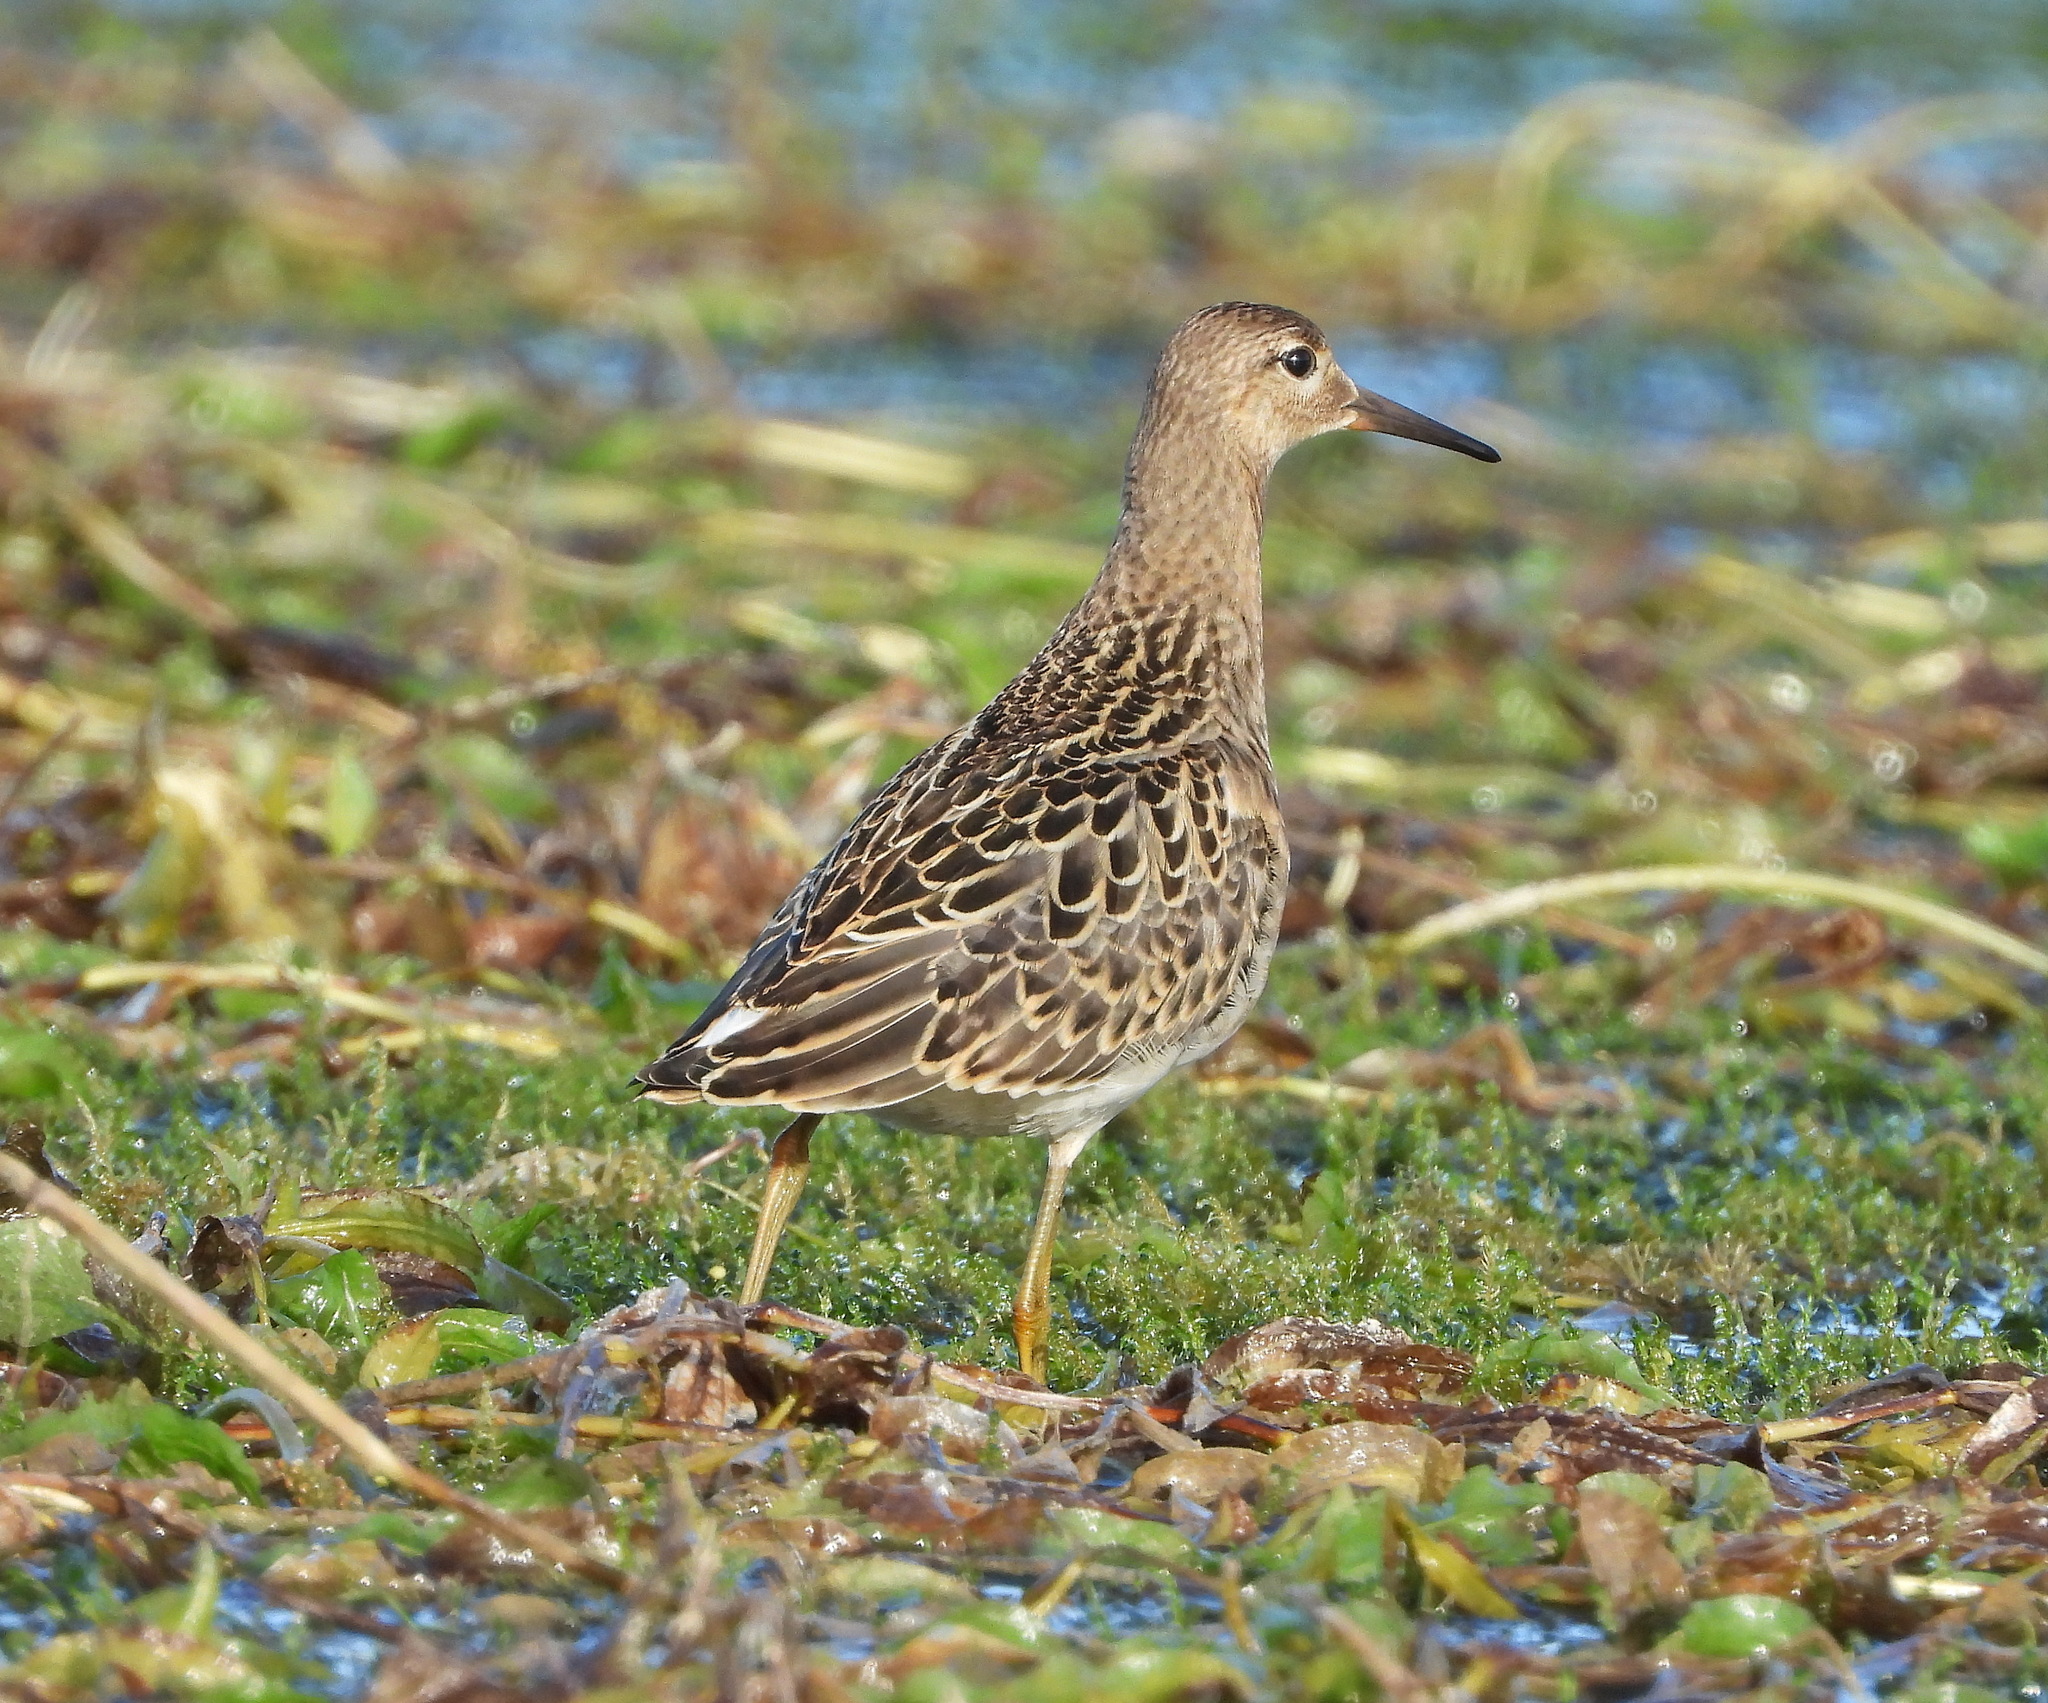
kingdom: Animalia
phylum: Chordata
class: Aves
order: Charadriiformes
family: Scolopacidae
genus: Calidris
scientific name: Calidris pugnax
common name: Ruff
